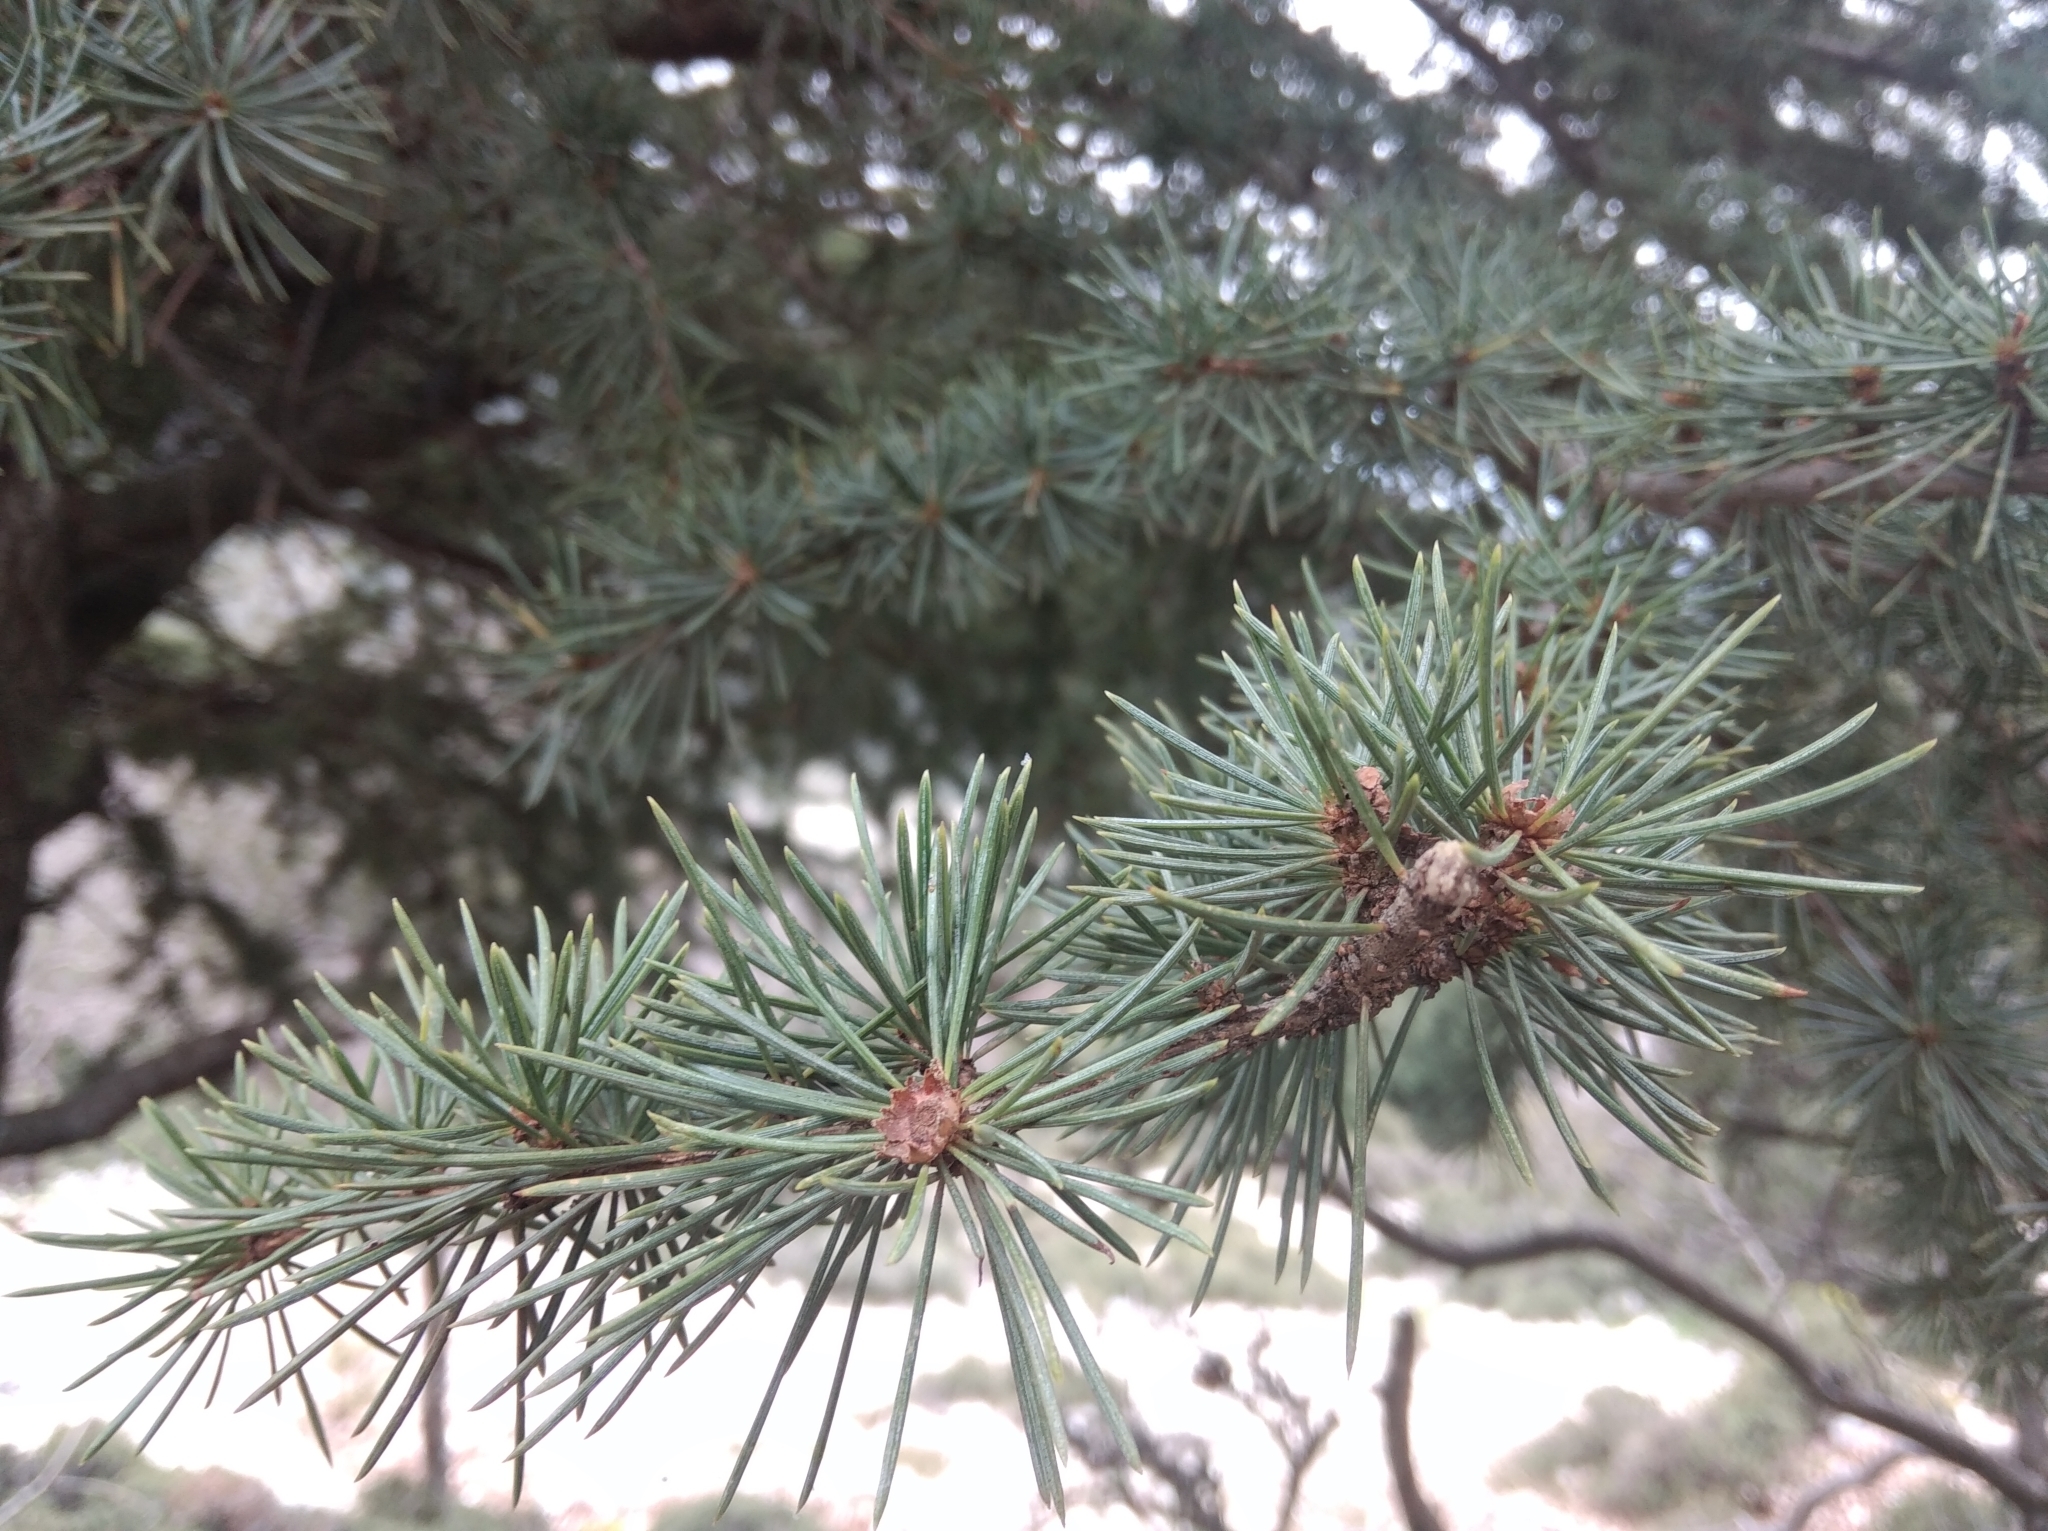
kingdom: Plantae
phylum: Tracheophyta
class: Pinopsida
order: Pinales
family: Pinaceae
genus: Cedrus
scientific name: Cedrus libani
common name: Cedar-of-lebanon
